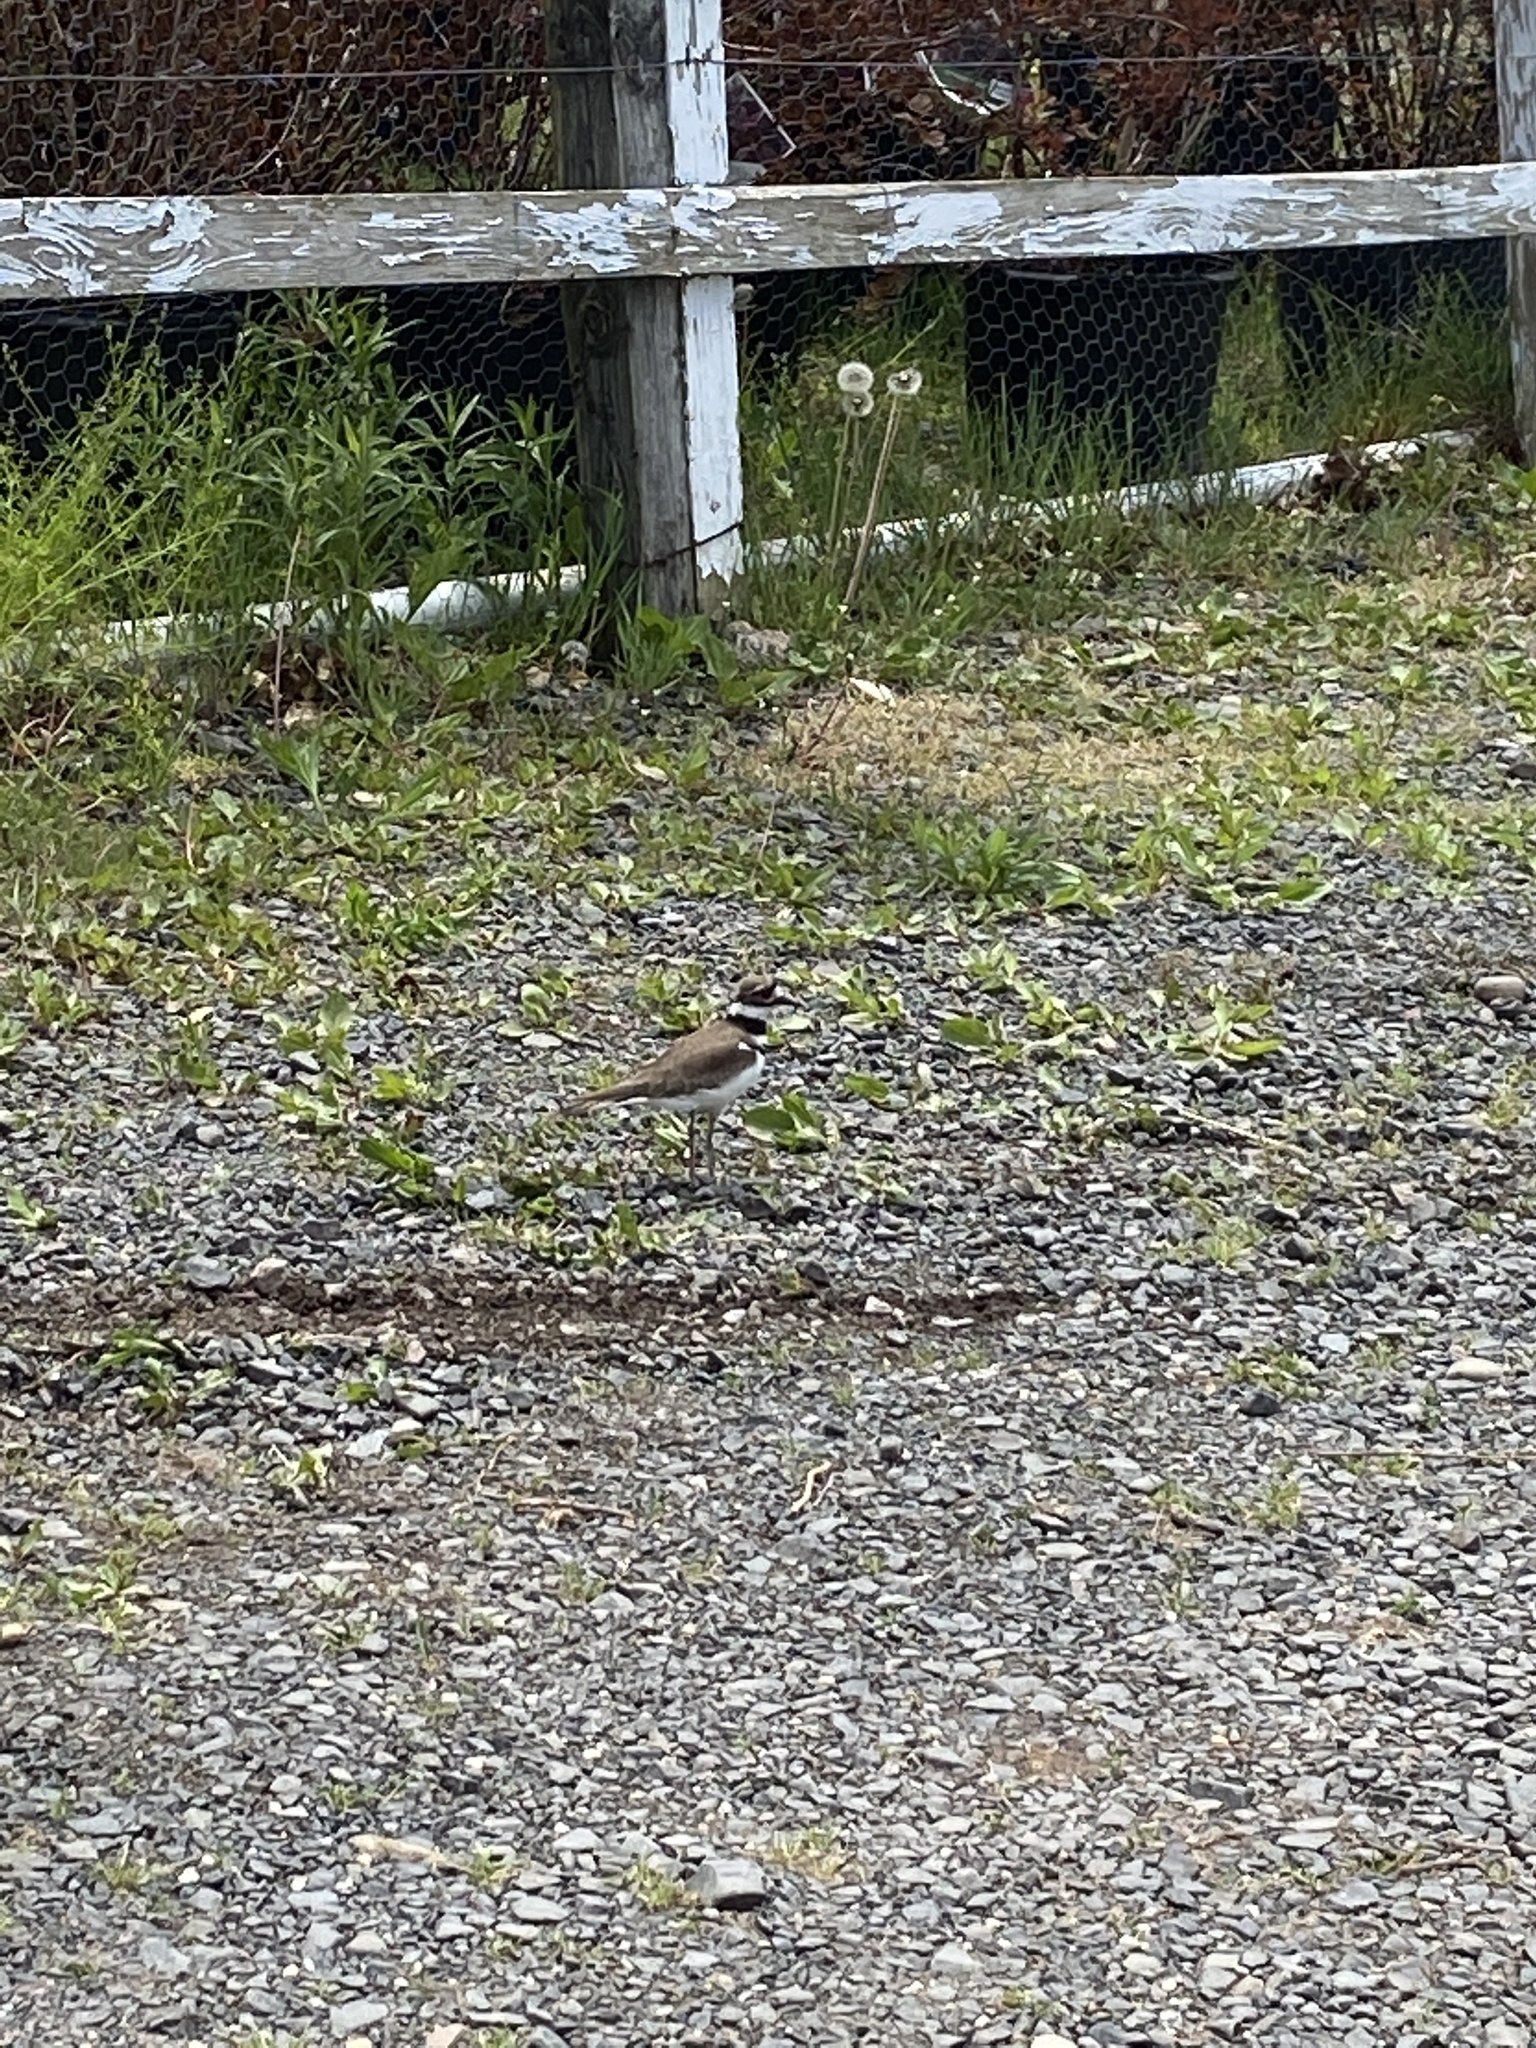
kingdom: Animalia
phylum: Chordata
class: Aves
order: Charadriiformes
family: Charadriidae
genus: Charadrius
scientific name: Charadrius vociferus
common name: Killdeer
